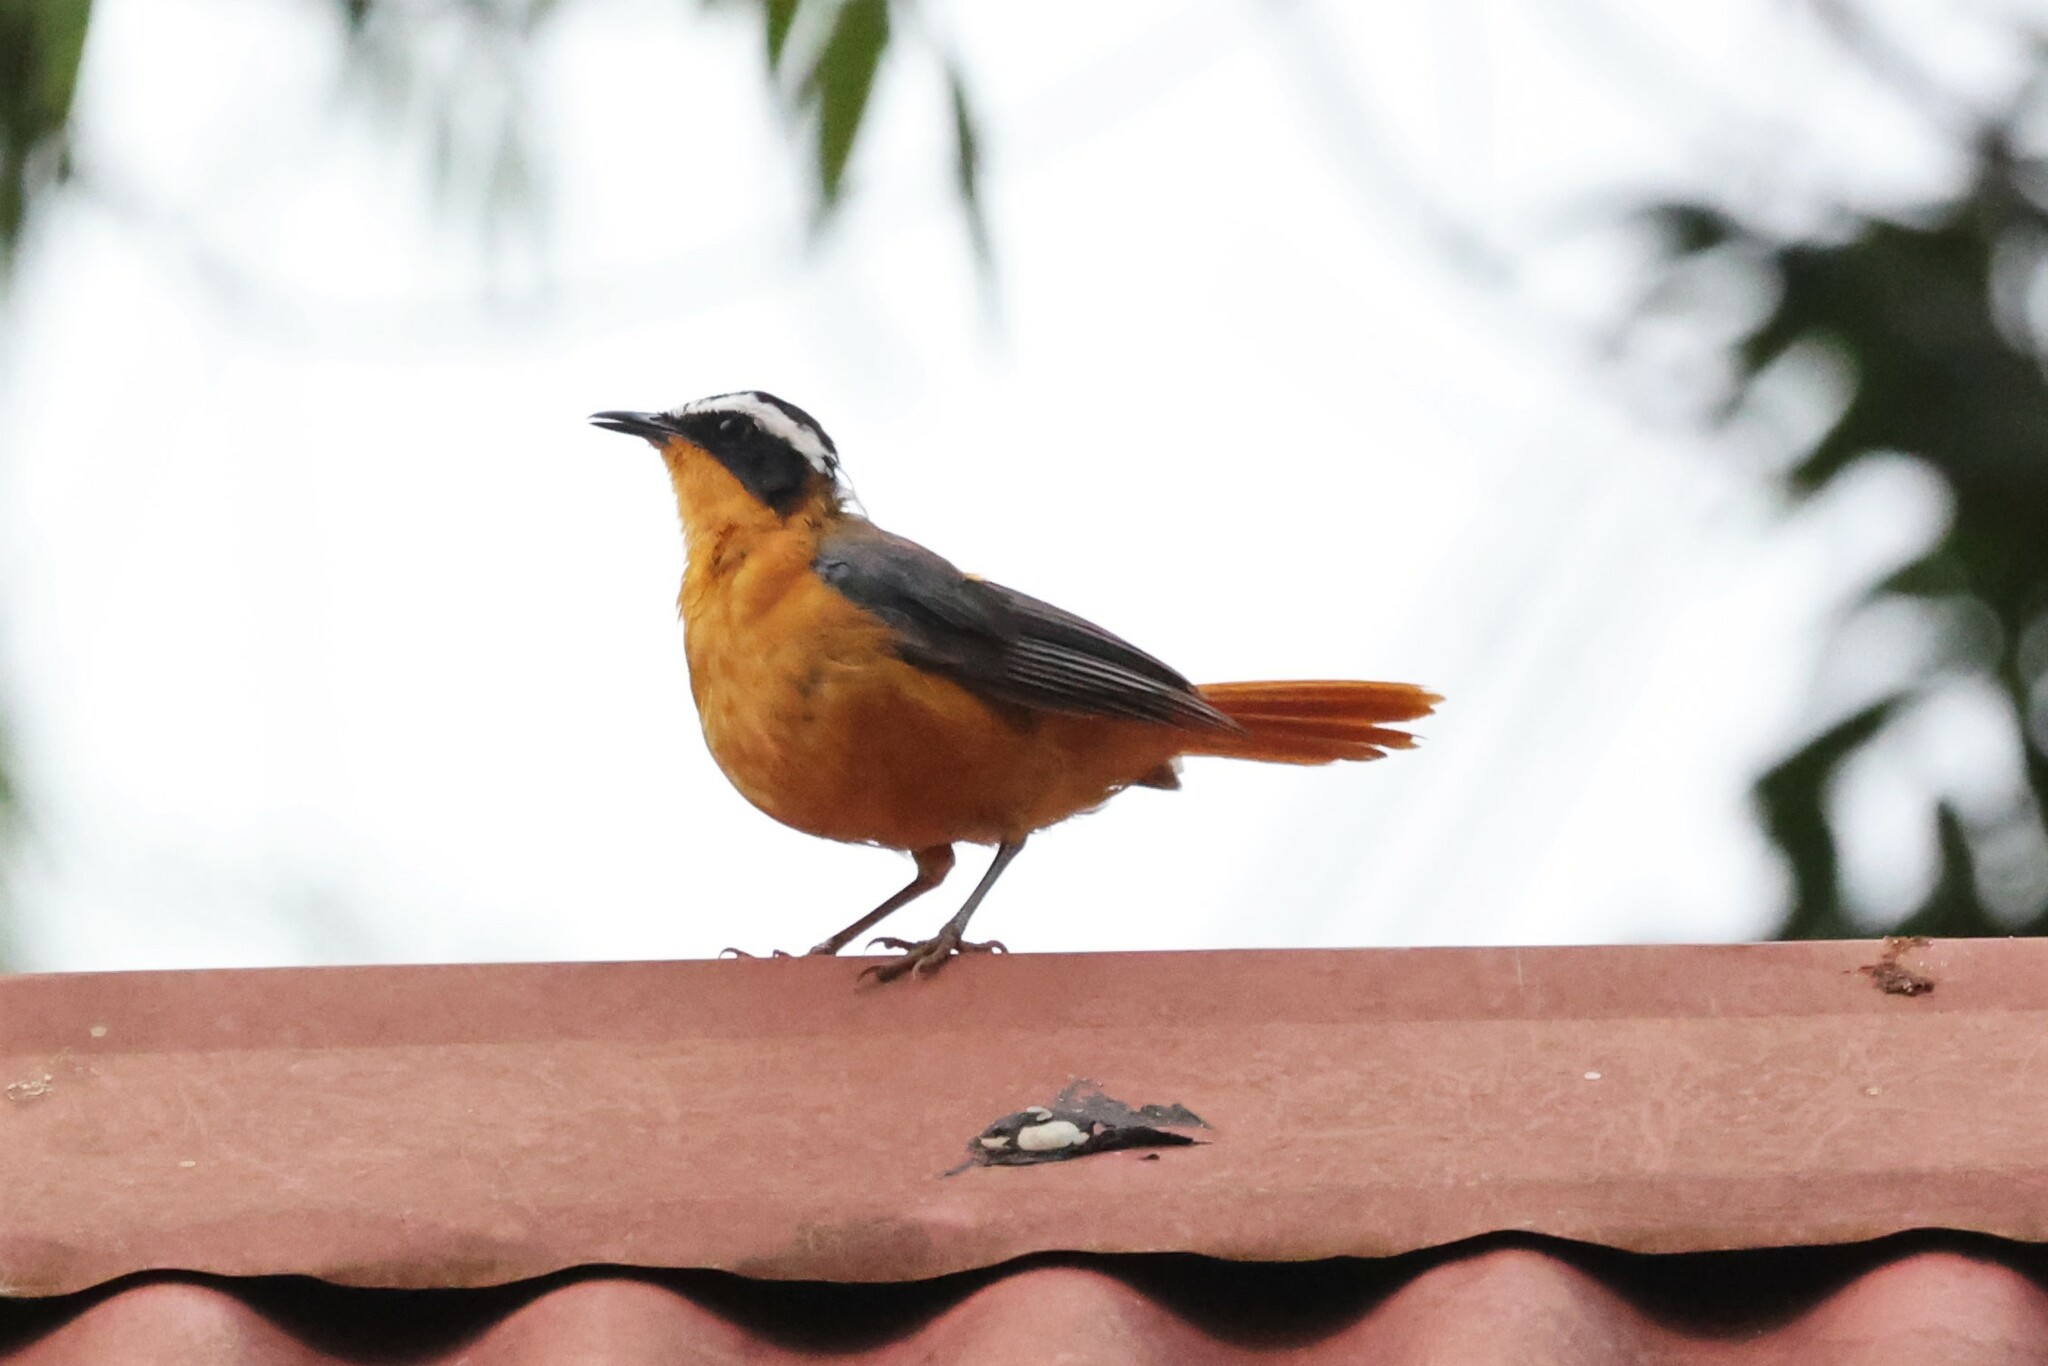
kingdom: Animalia
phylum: Chordata
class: Aves
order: Passeriformes
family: Muscicapidae
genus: Cossypha
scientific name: Cossypha heuglini
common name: White-browed robin-chat
